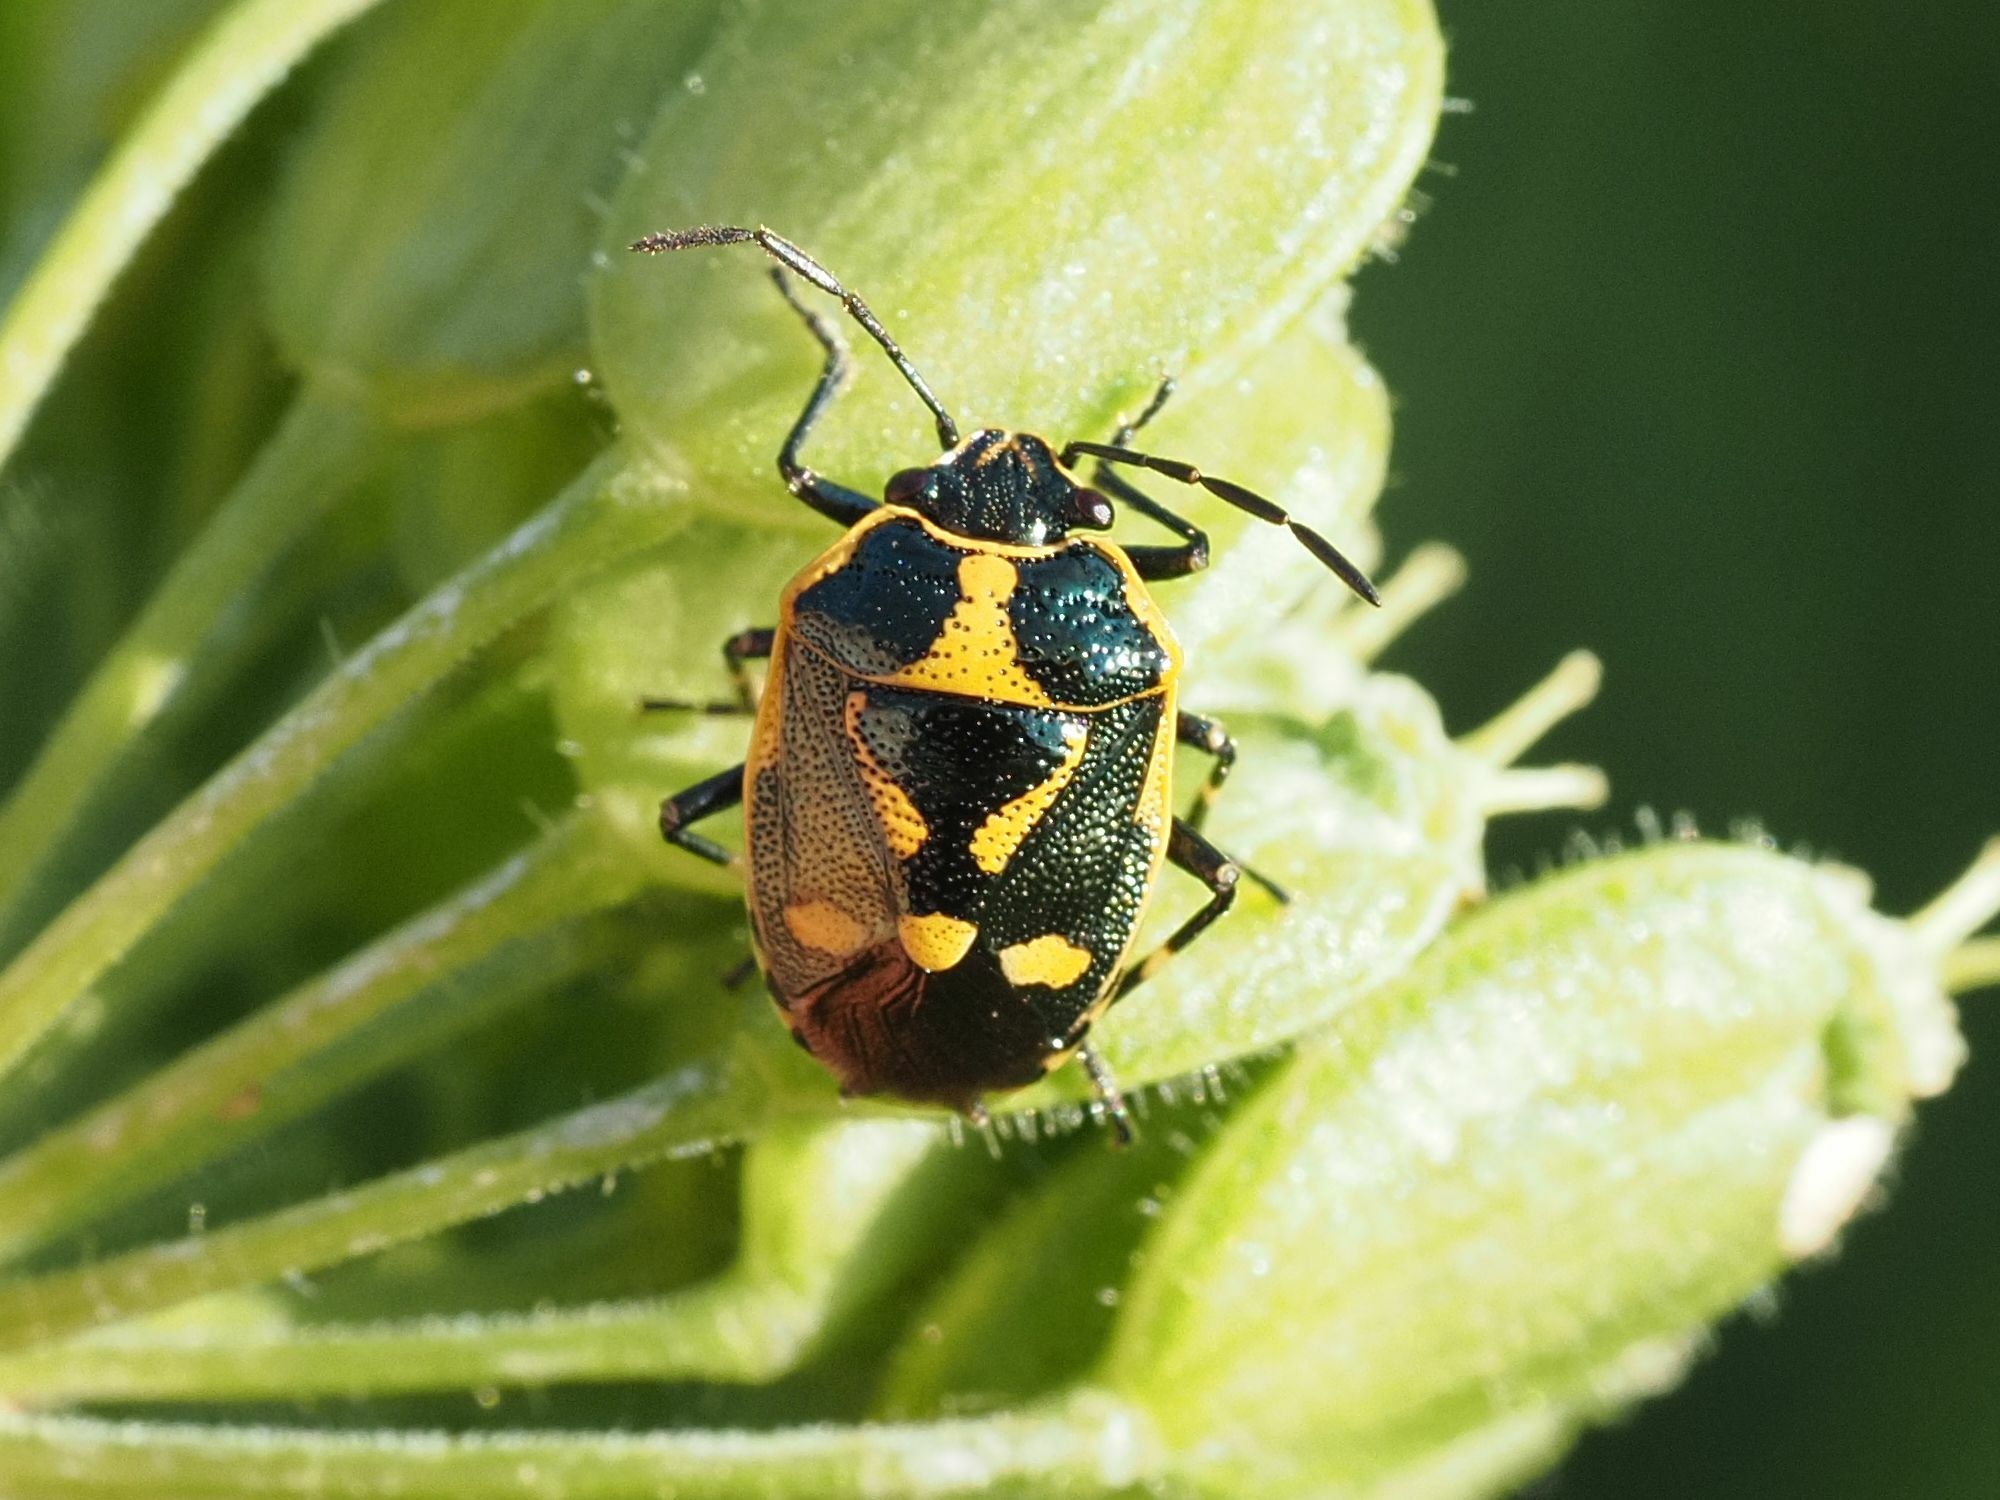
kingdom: Animalia
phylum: Arthropoda
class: Insecta
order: Hemiptera
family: Pentatomidae
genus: Eurydema
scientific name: Eurydema oleracea
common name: Cabbage bug
